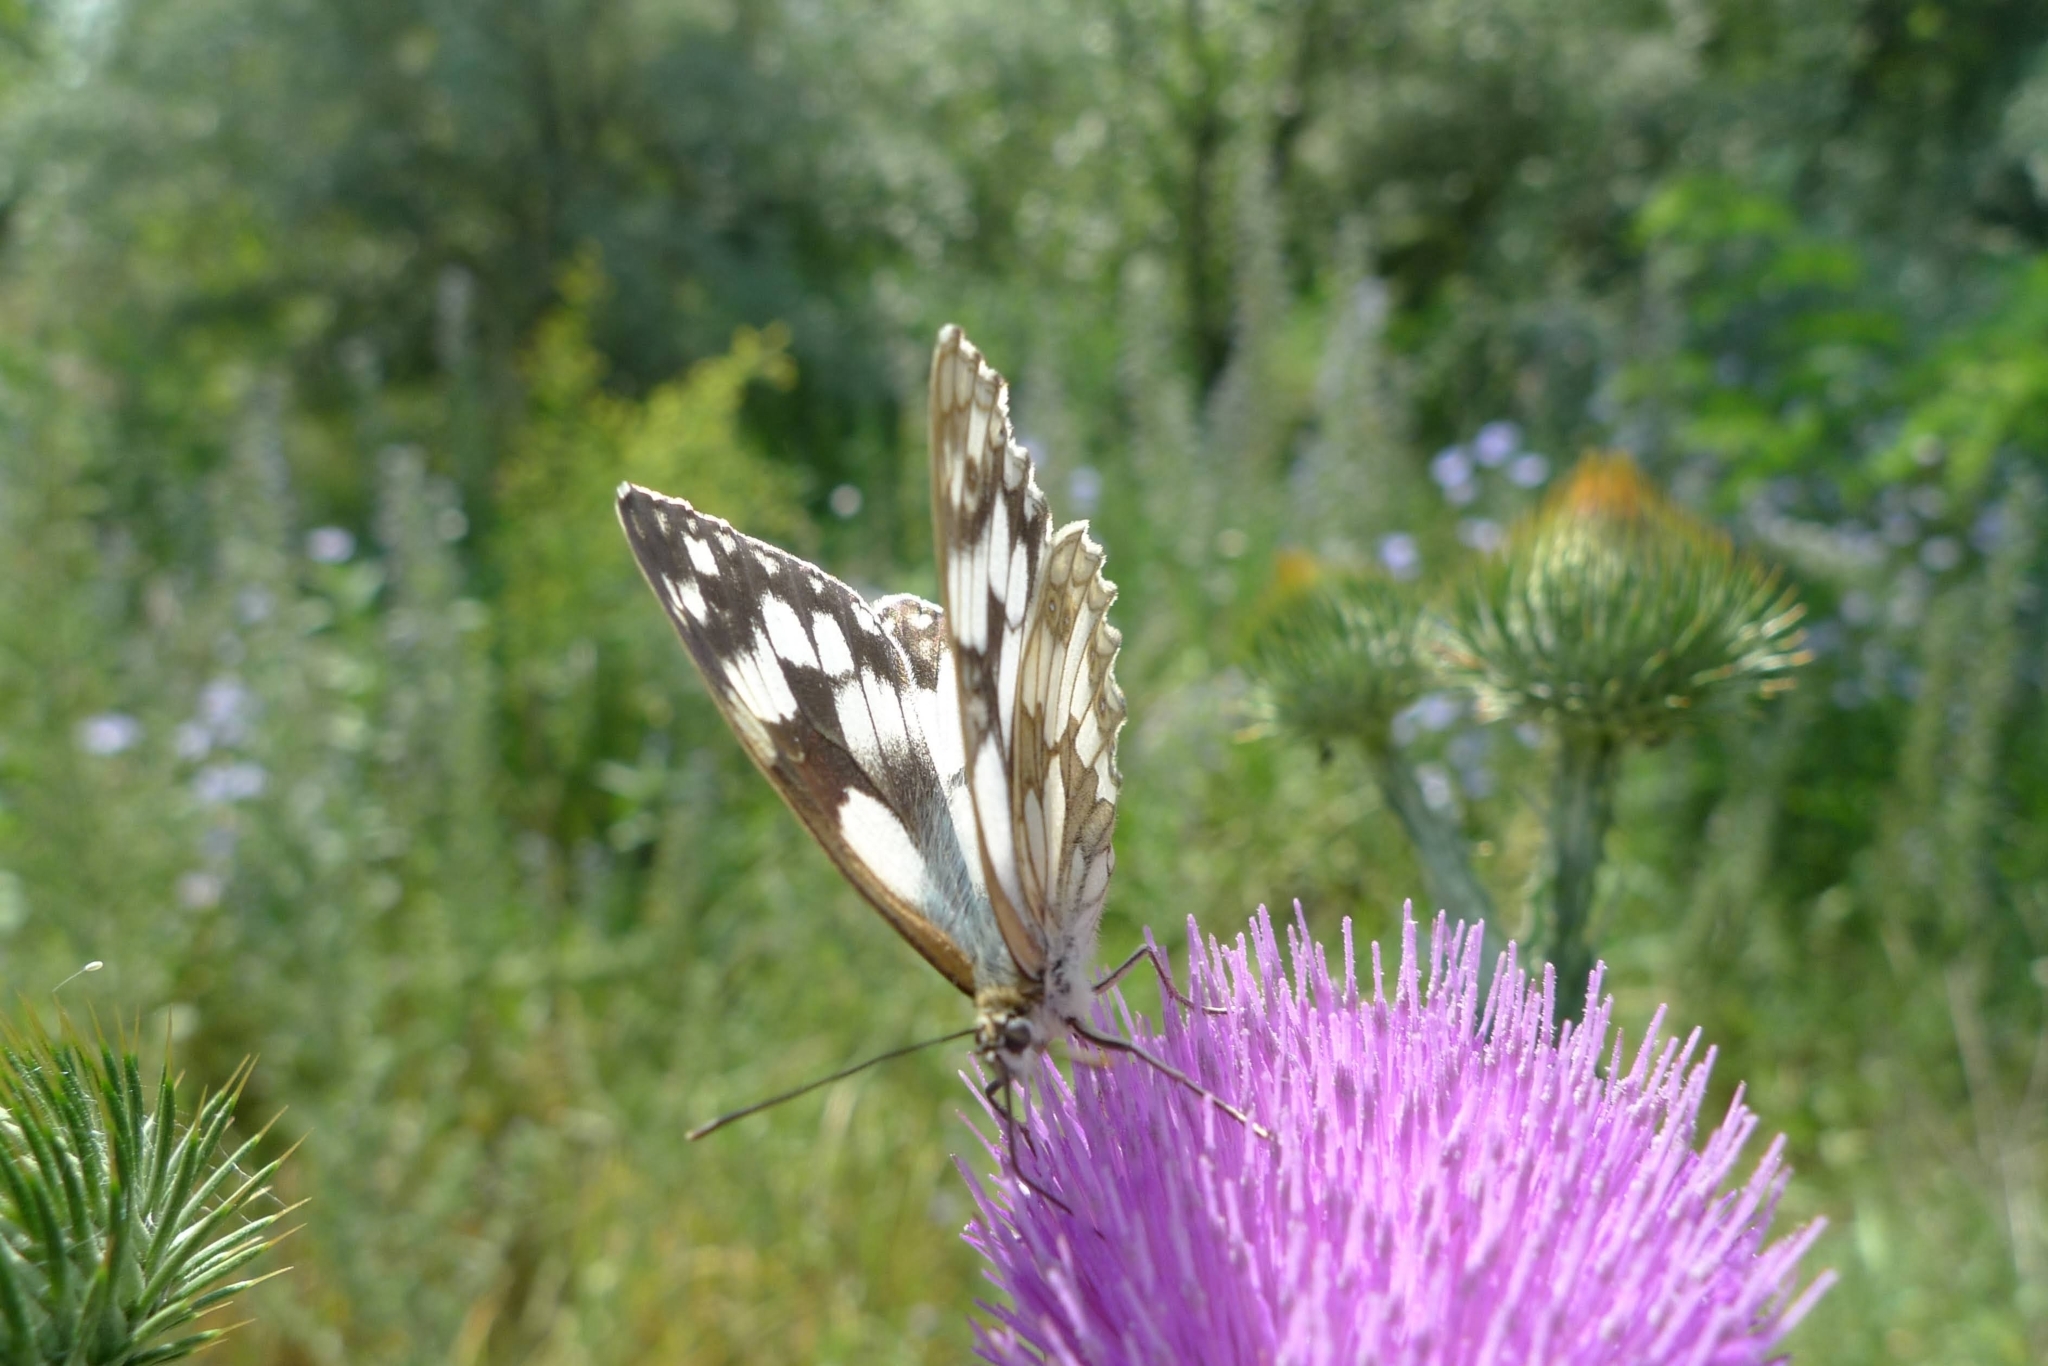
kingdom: Animalia
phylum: Arthropoda
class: Insecta
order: Lepidoptera
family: Nymphalidae
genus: Melanargia
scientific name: Melanargia galathea
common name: Marbled white
